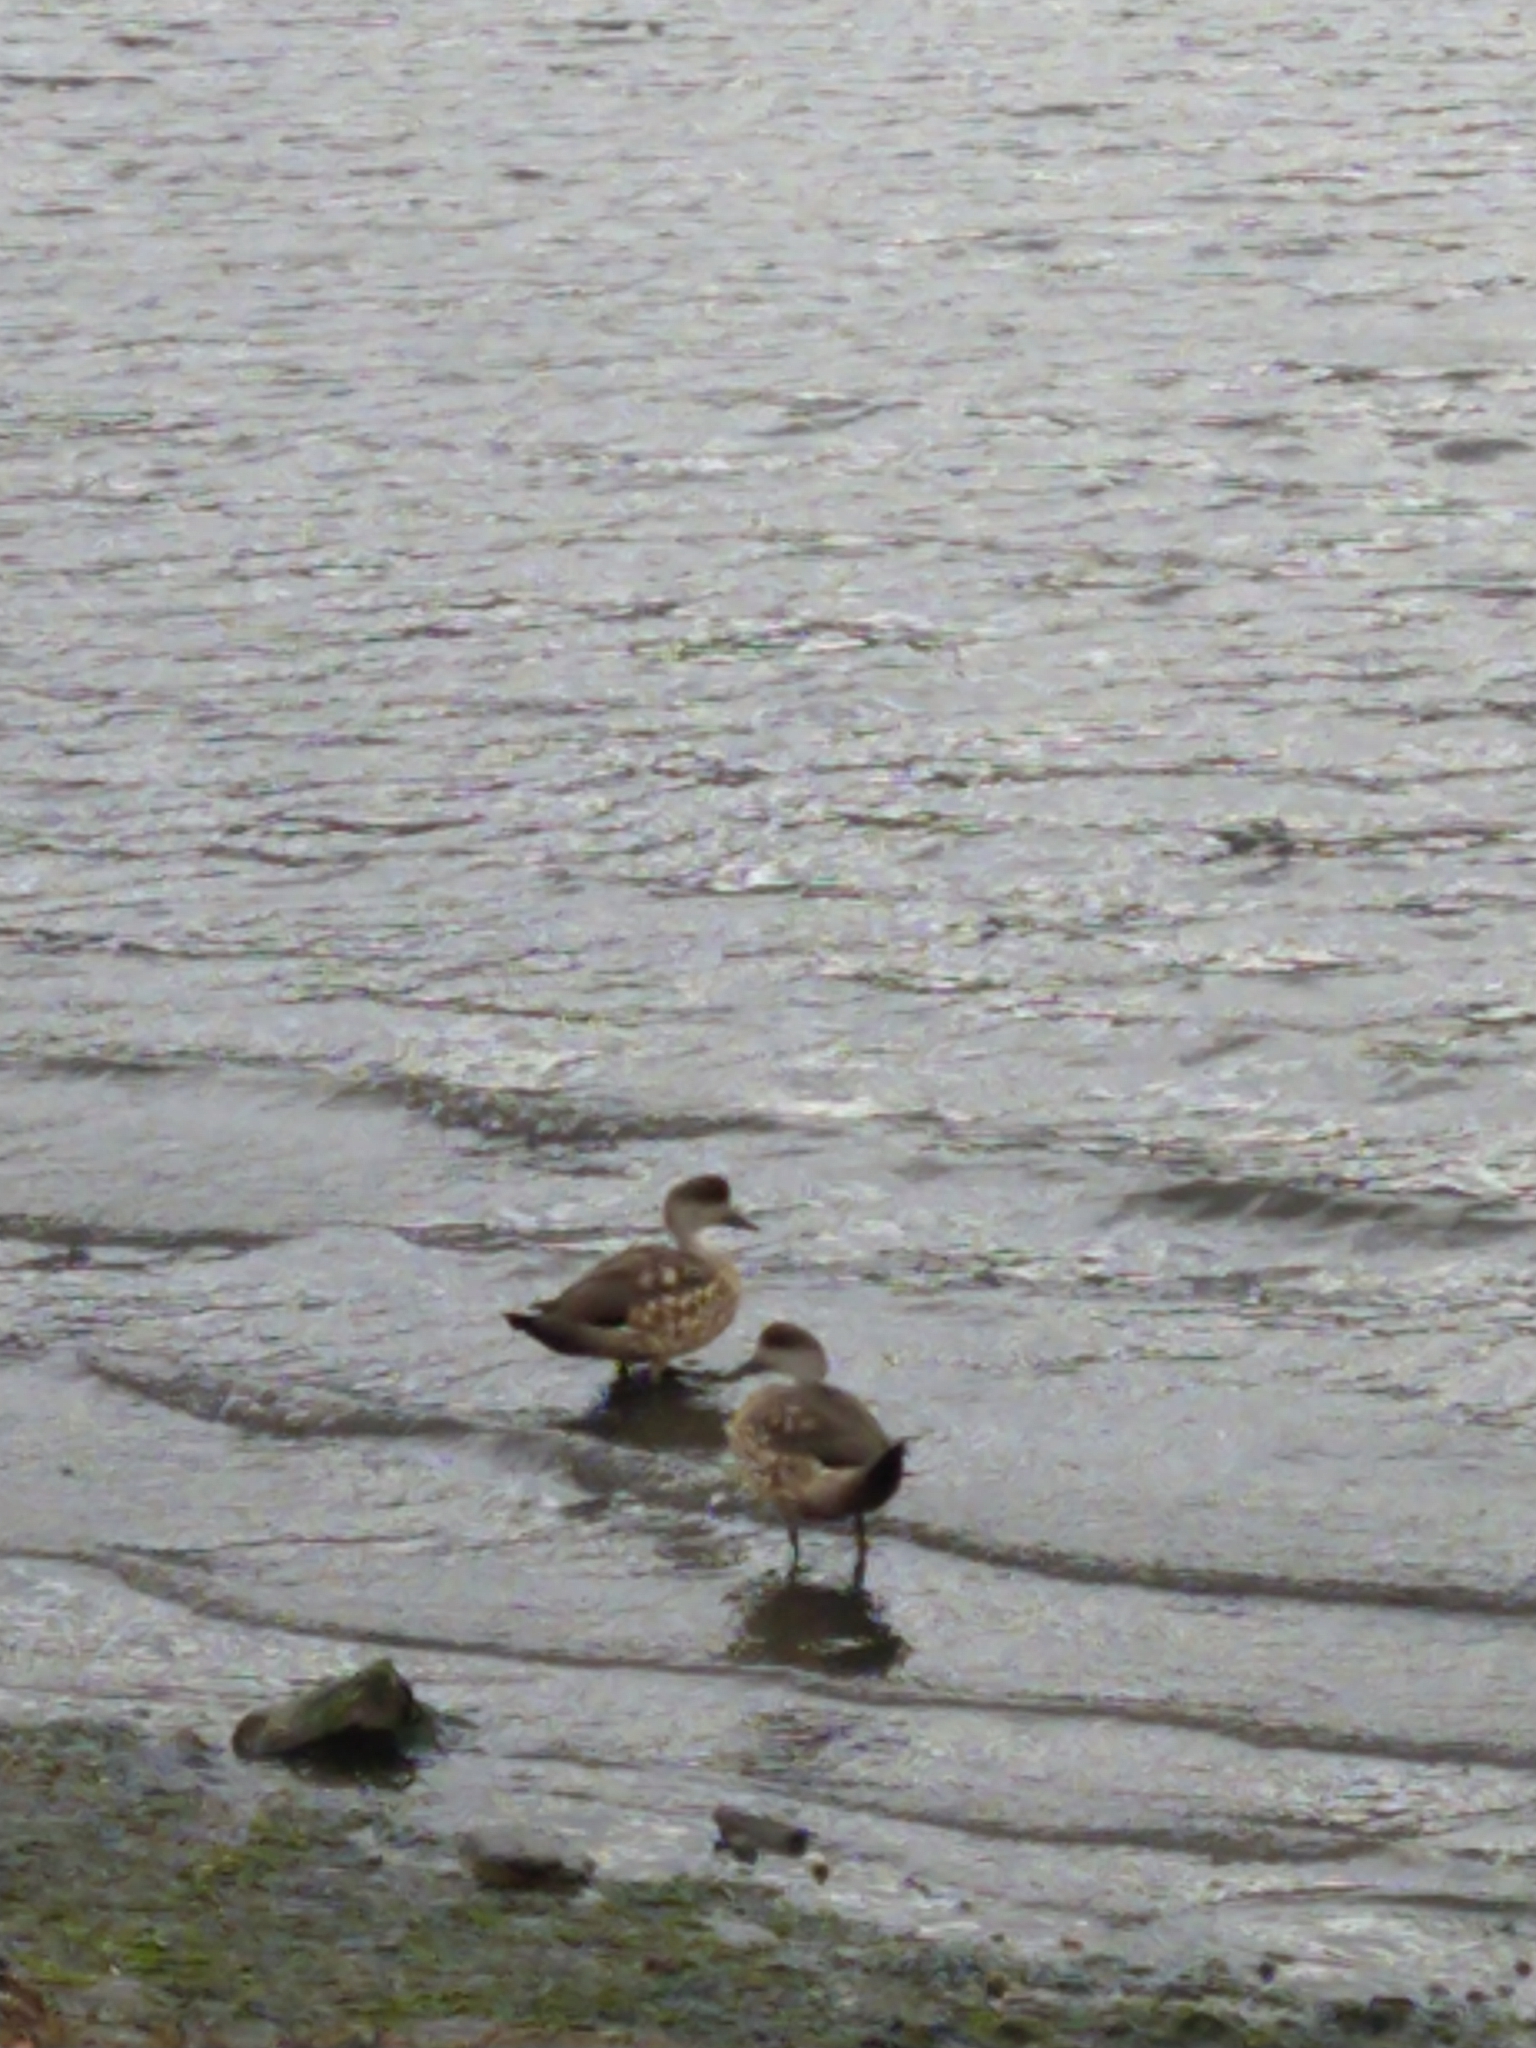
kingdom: Animalia
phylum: Chordata
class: Aves
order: Anseriformes
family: Anatidae
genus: Lophonetta
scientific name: Lophonetta specularioides
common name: Crested duck
